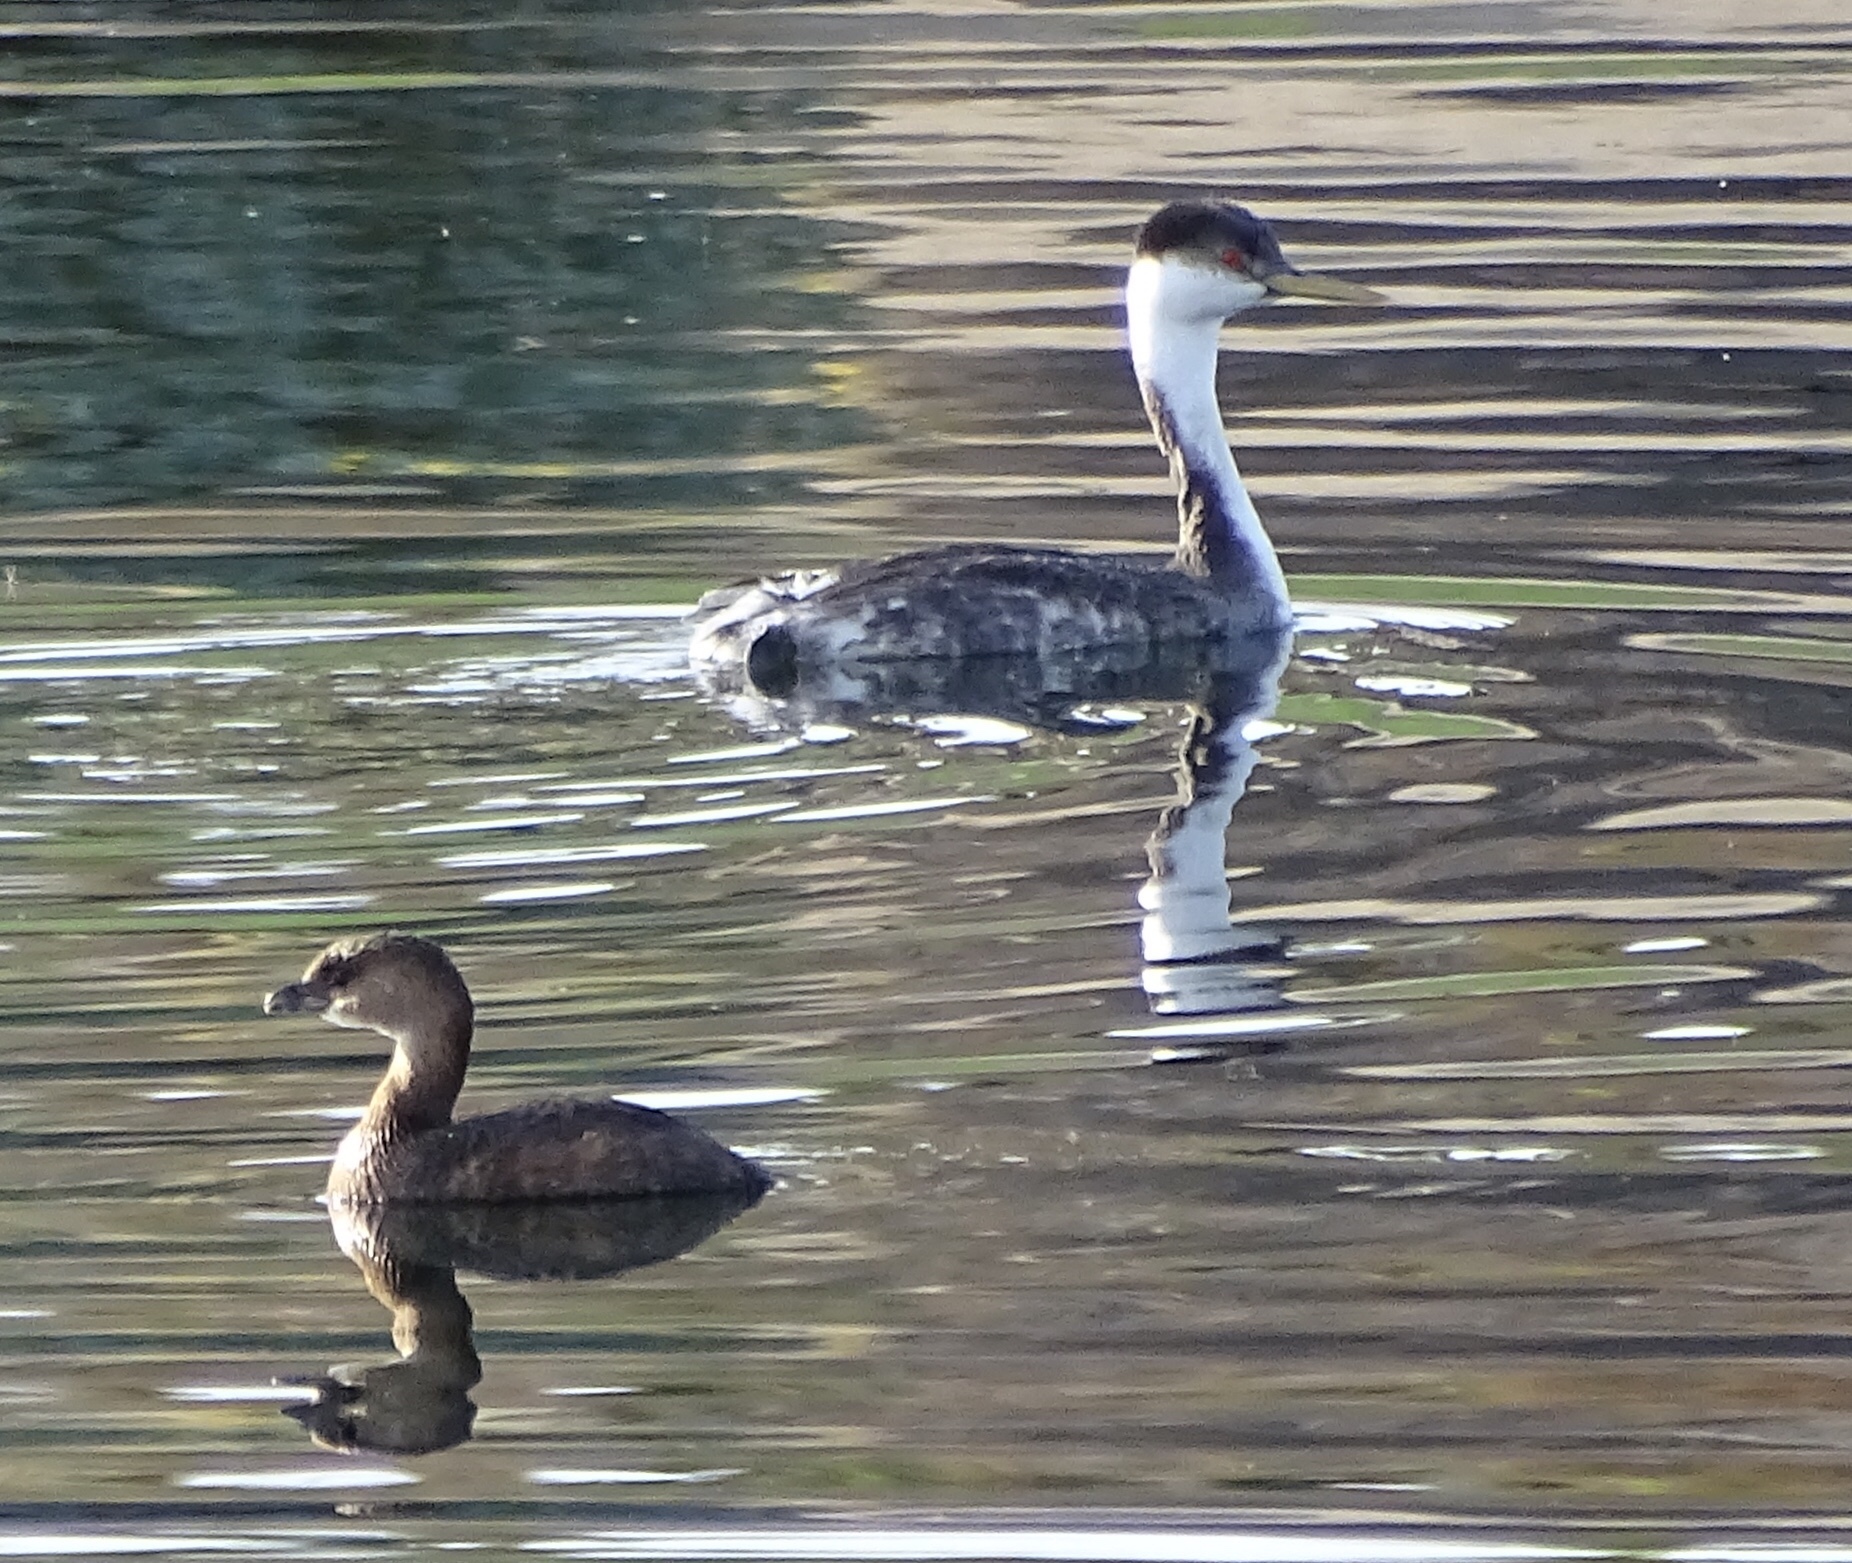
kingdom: Animalia
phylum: Chordata
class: Aves
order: Podicipediformes
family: Podicipedidae
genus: Podilymbus
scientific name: Podilymbus podiceps
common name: Pied-billed grebe
